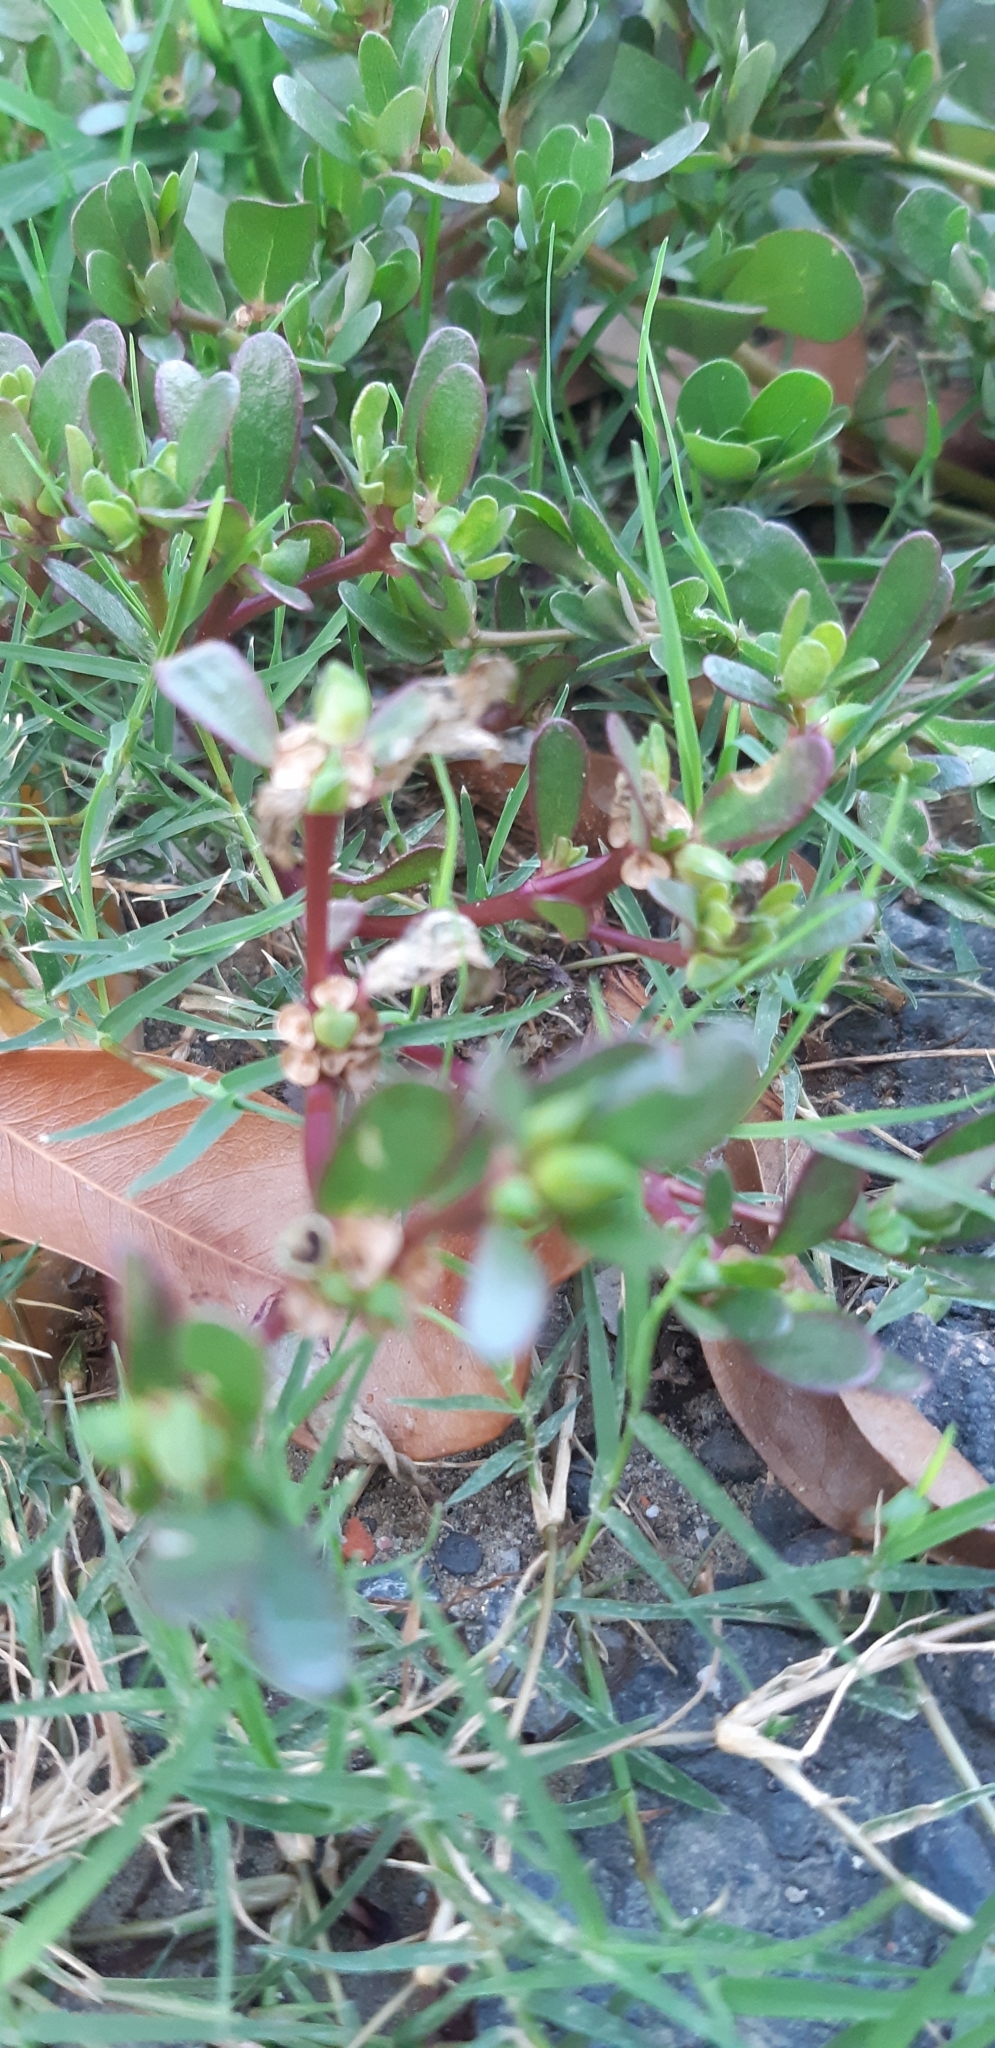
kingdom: Plantae
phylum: Tracheophyta
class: Magnoliopsida
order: Caryophyllales
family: Portulacaceae
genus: Portulaca
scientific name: Portulaca oleracea
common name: Common purslane
